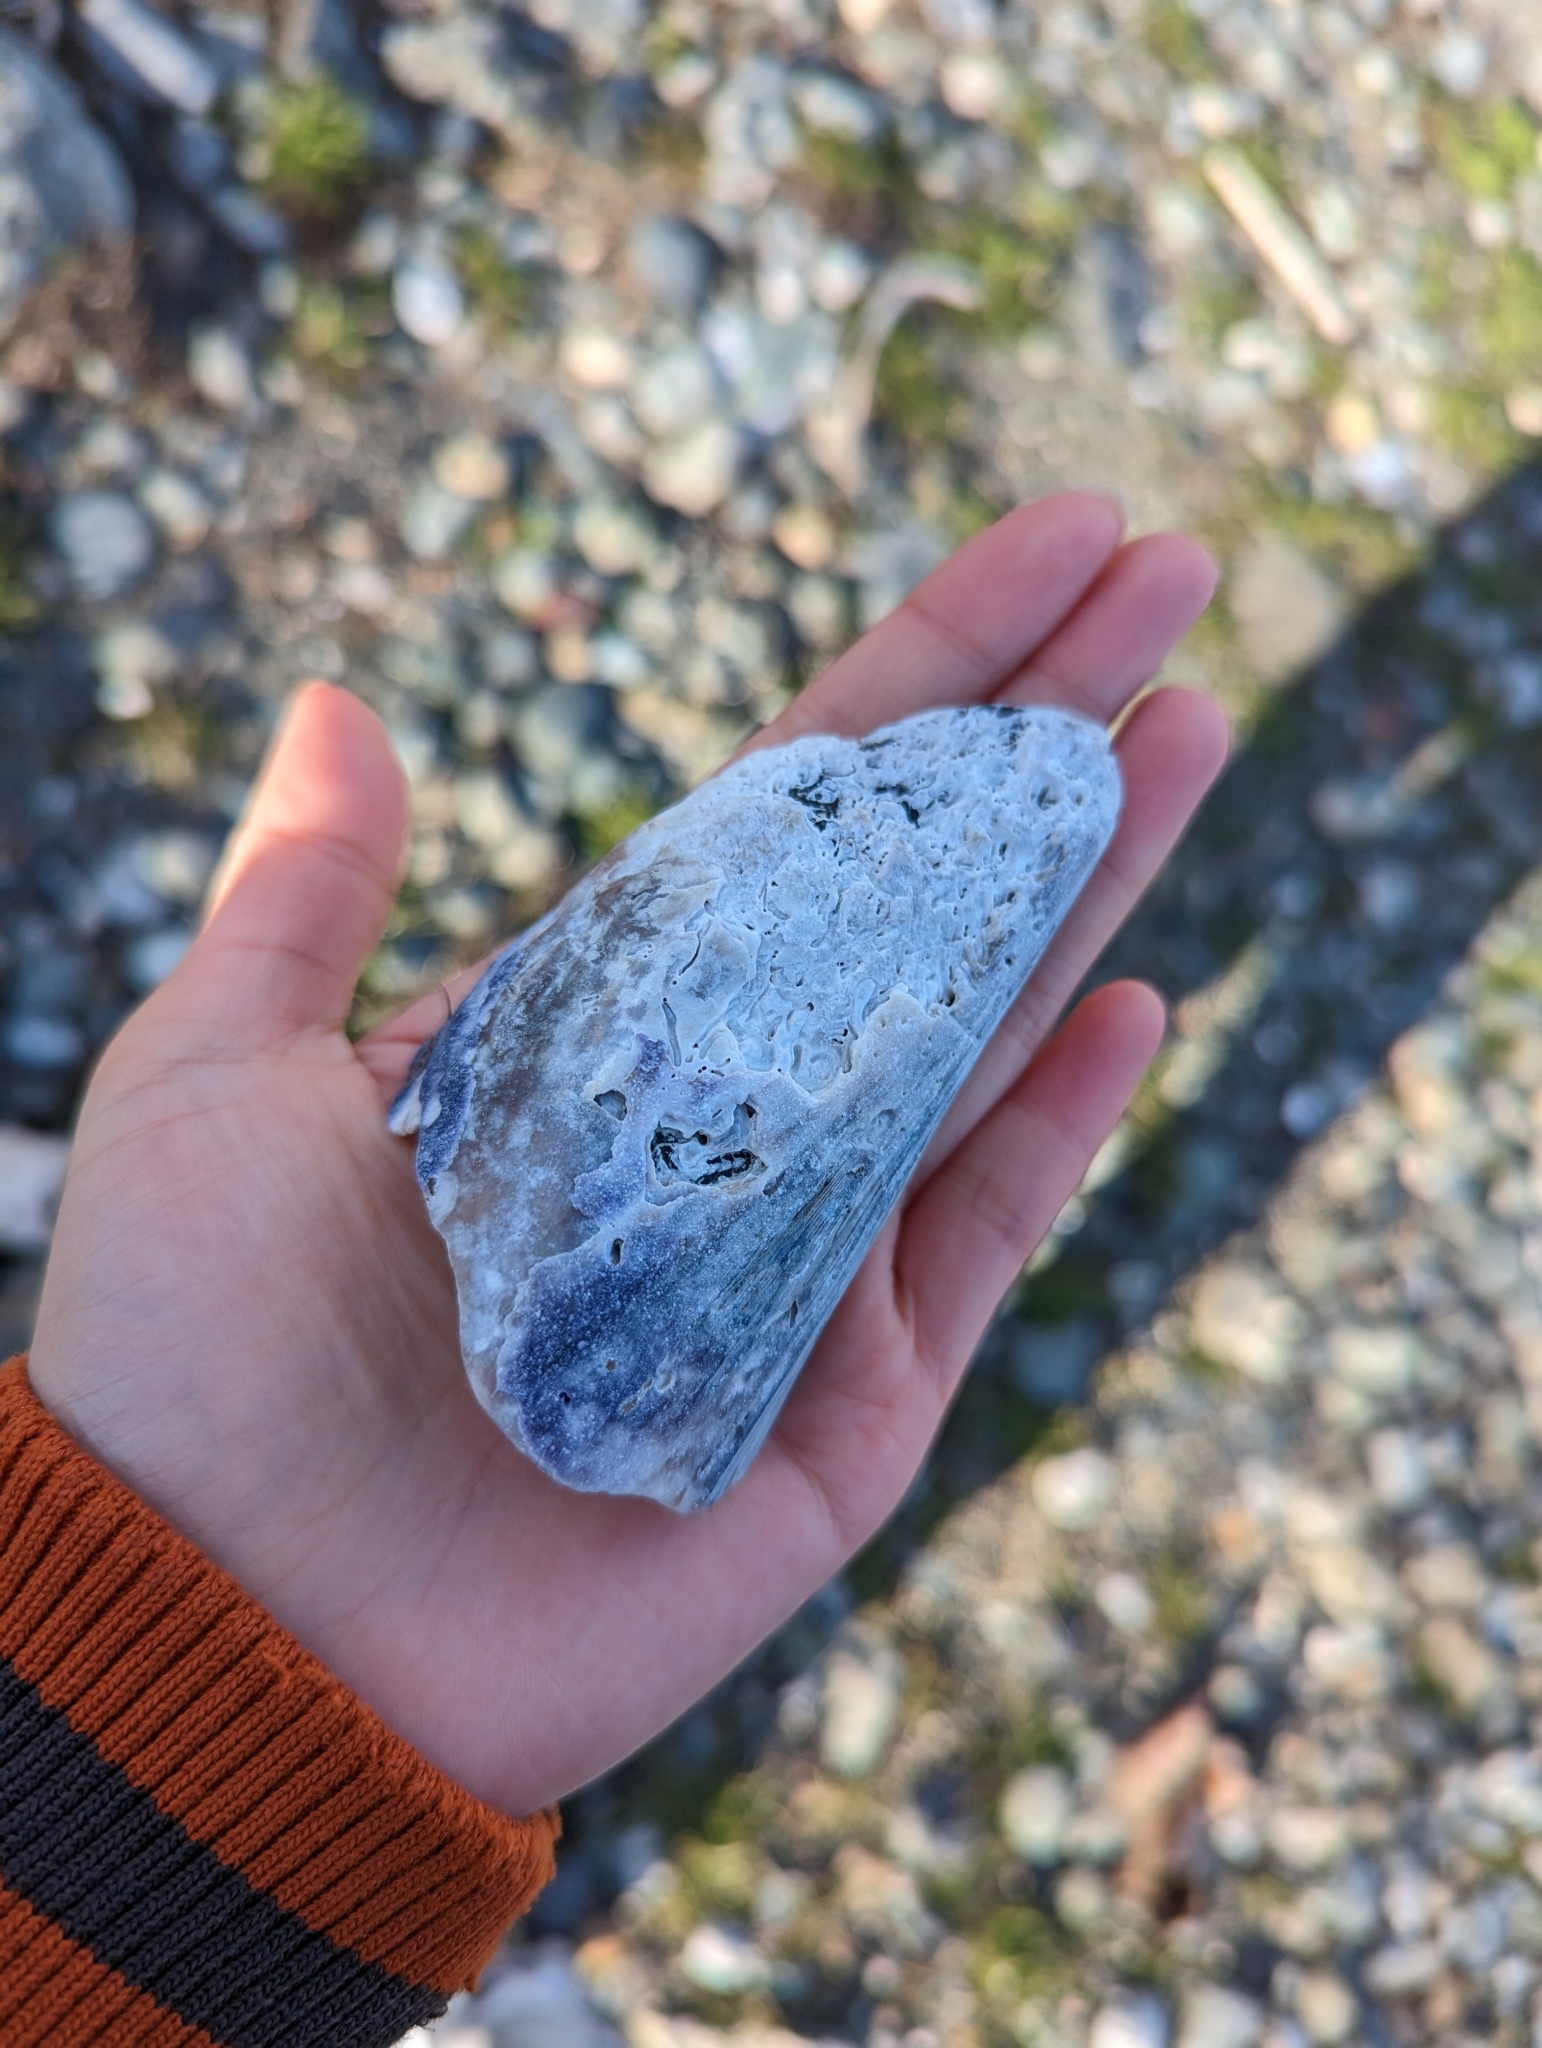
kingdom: Animalia
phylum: Mollusca
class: Bivalvia
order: Mytilida
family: Mytilidae
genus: Mytilus
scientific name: Mytilus californianus
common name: California mussel
